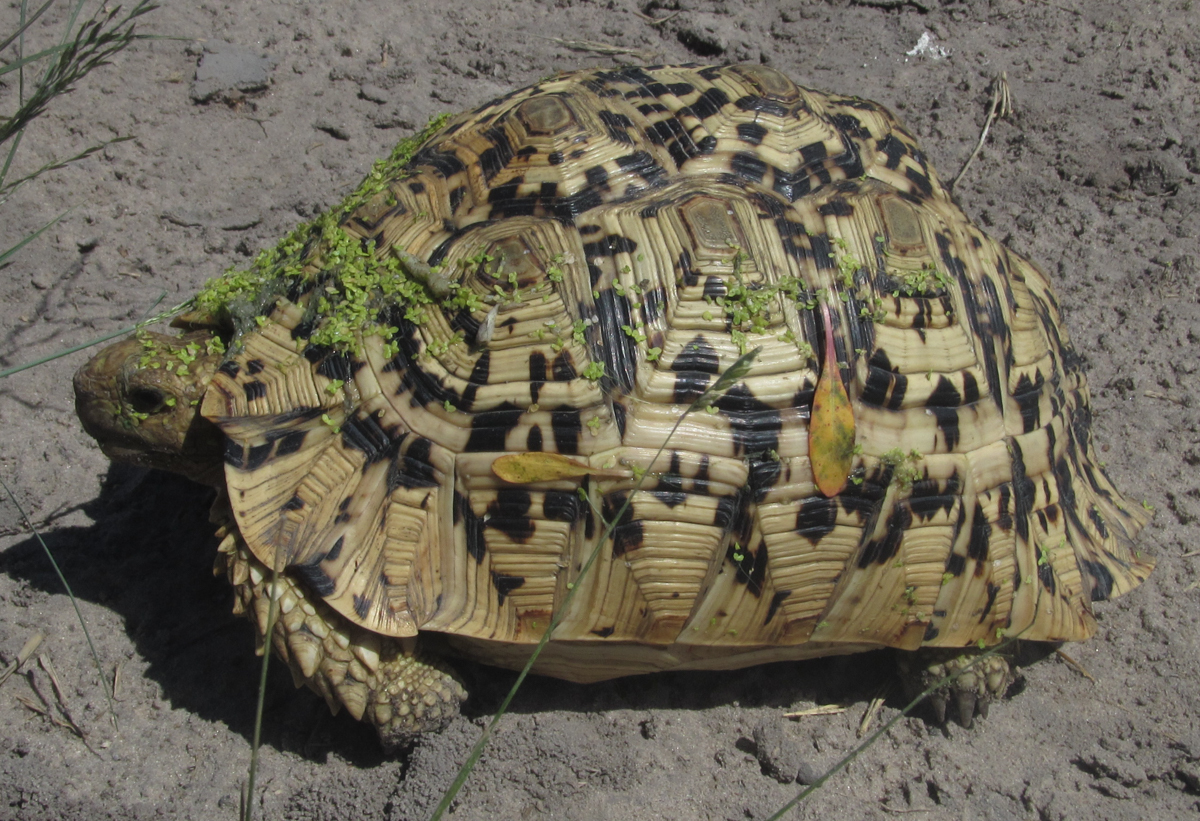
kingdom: Animalia
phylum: Chordata
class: Testudines
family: Testudinidae
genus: Stigmochelys
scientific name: Stigmochelys pardalis
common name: Leopard tortoise
